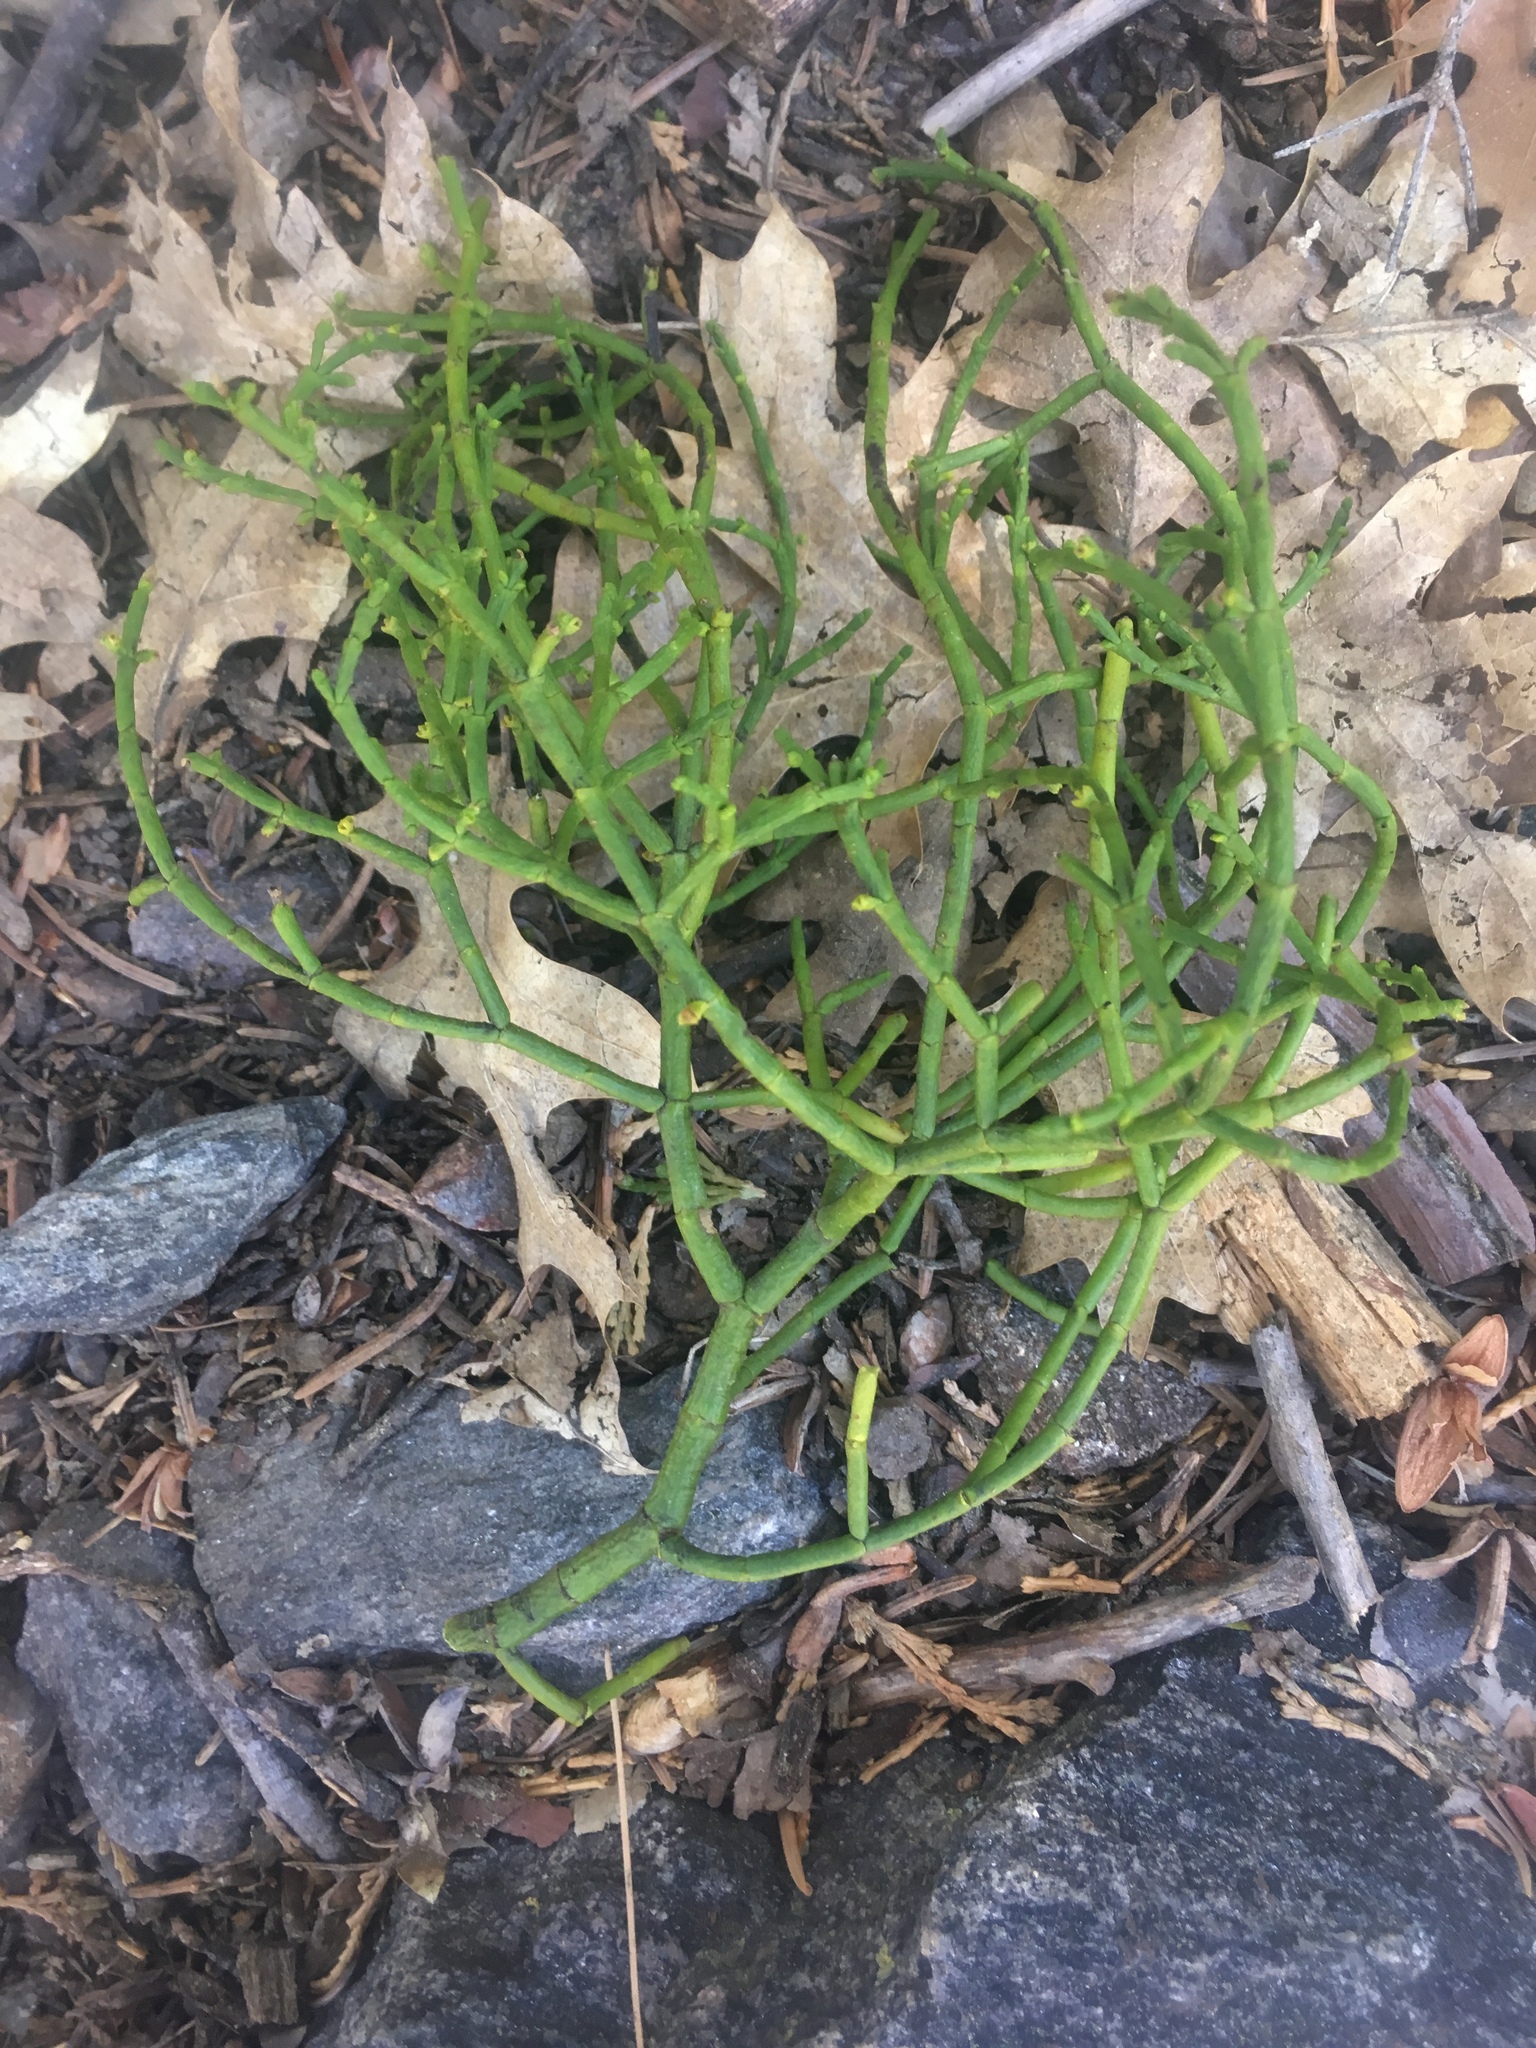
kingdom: Plantae
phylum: Tracheophyta
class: Magnoliopsida
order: Santalales
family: Viscaceae
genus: Phoradendron
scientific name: Phoradendron juniperinum
